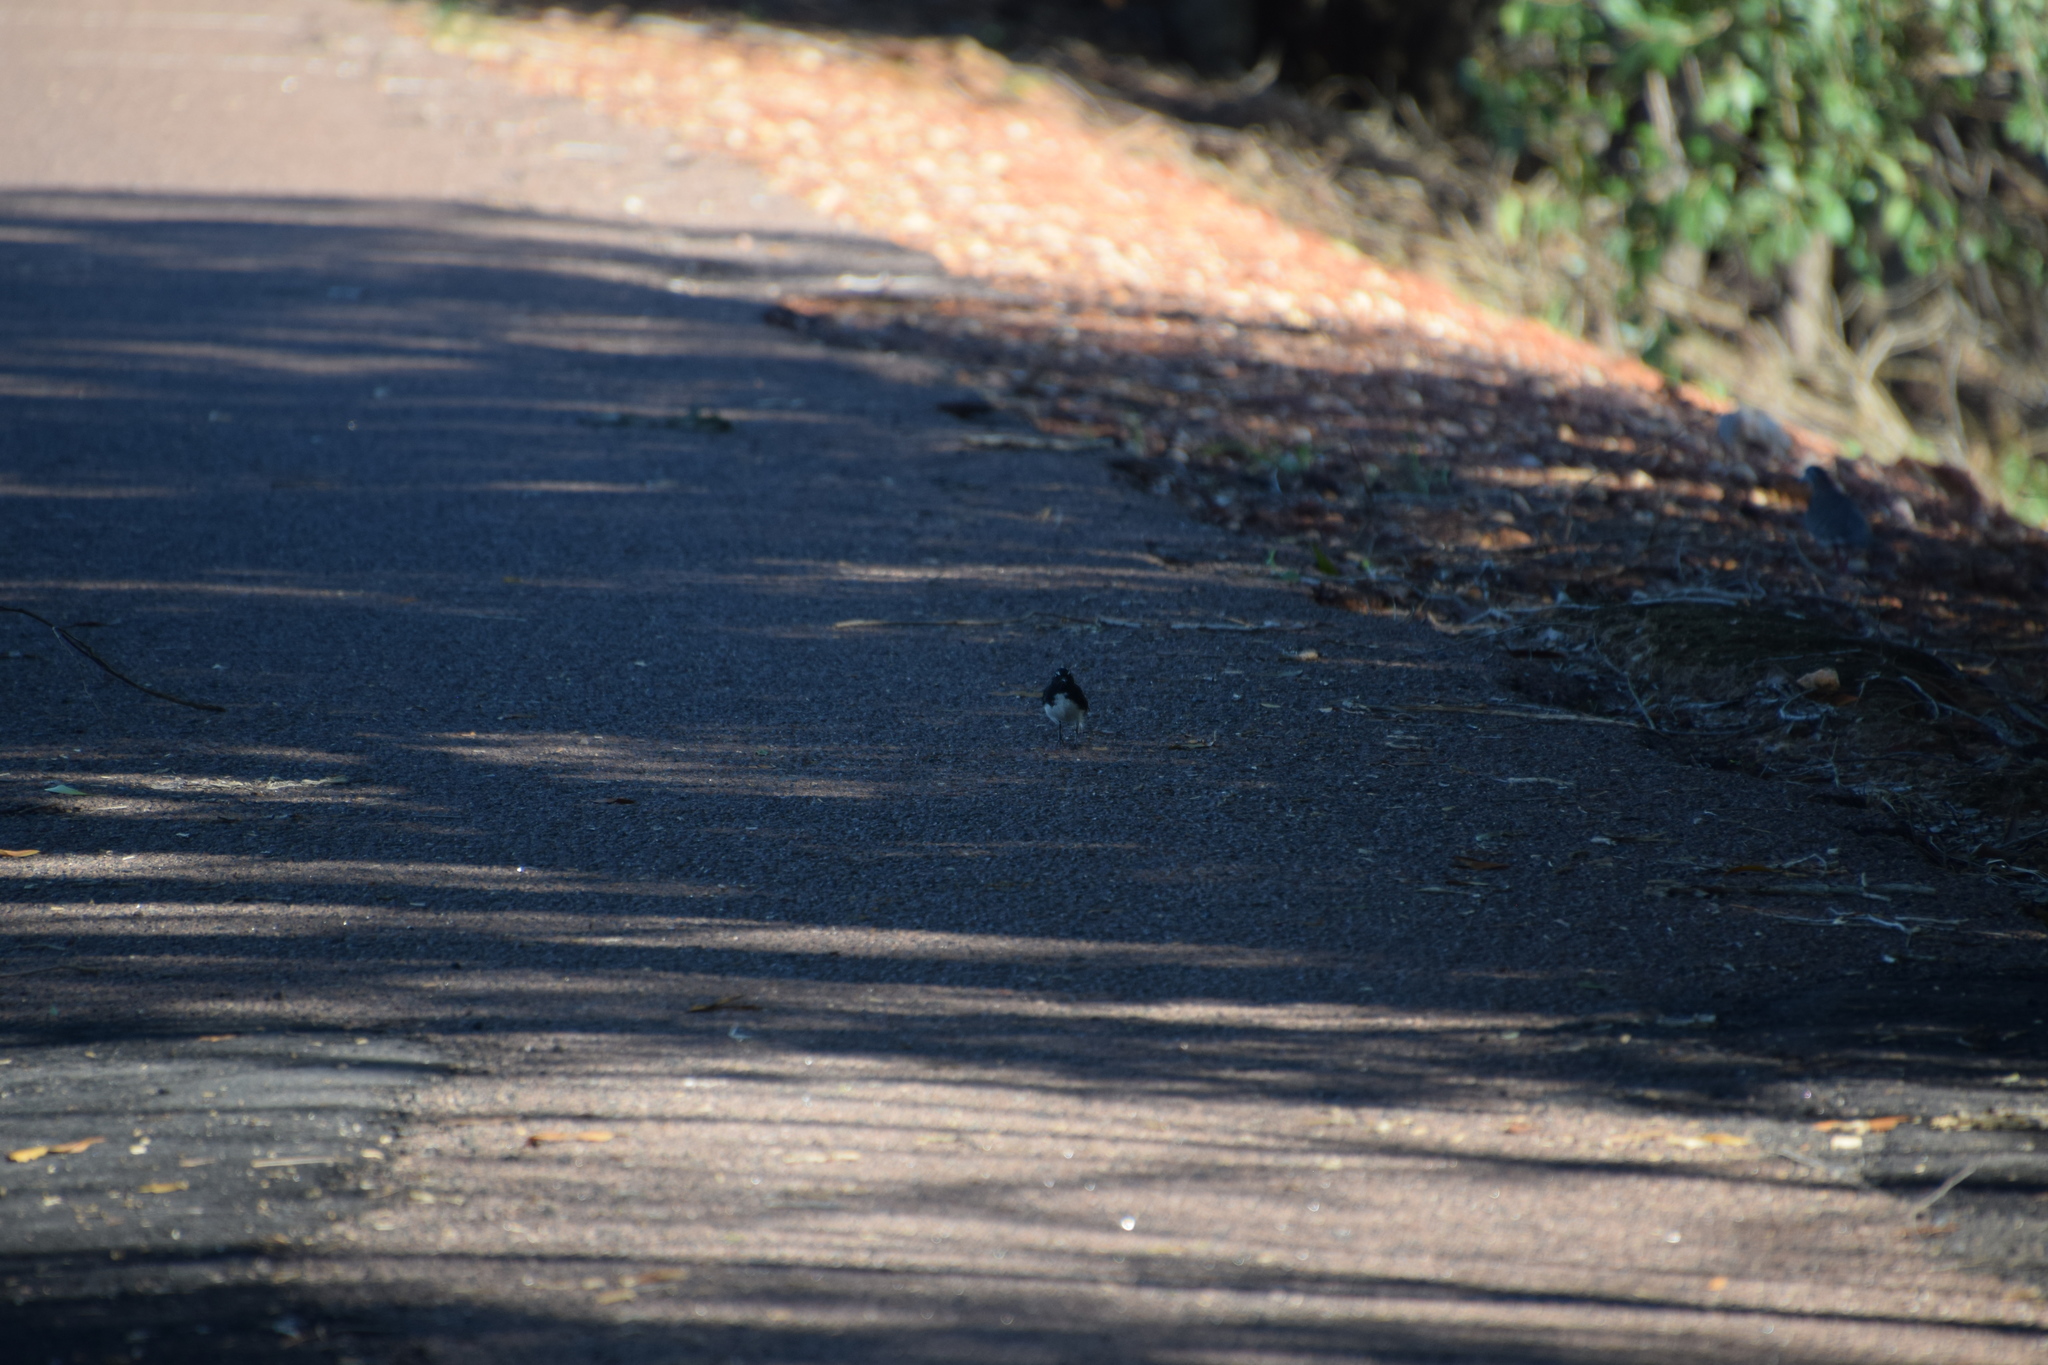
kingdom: Animalia
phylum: Chordata
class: Aves
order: Passeriformes
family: Rhipiduridae
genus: Rhipidura
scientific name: Rhipidura leucophrys
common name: Willie wagtail
